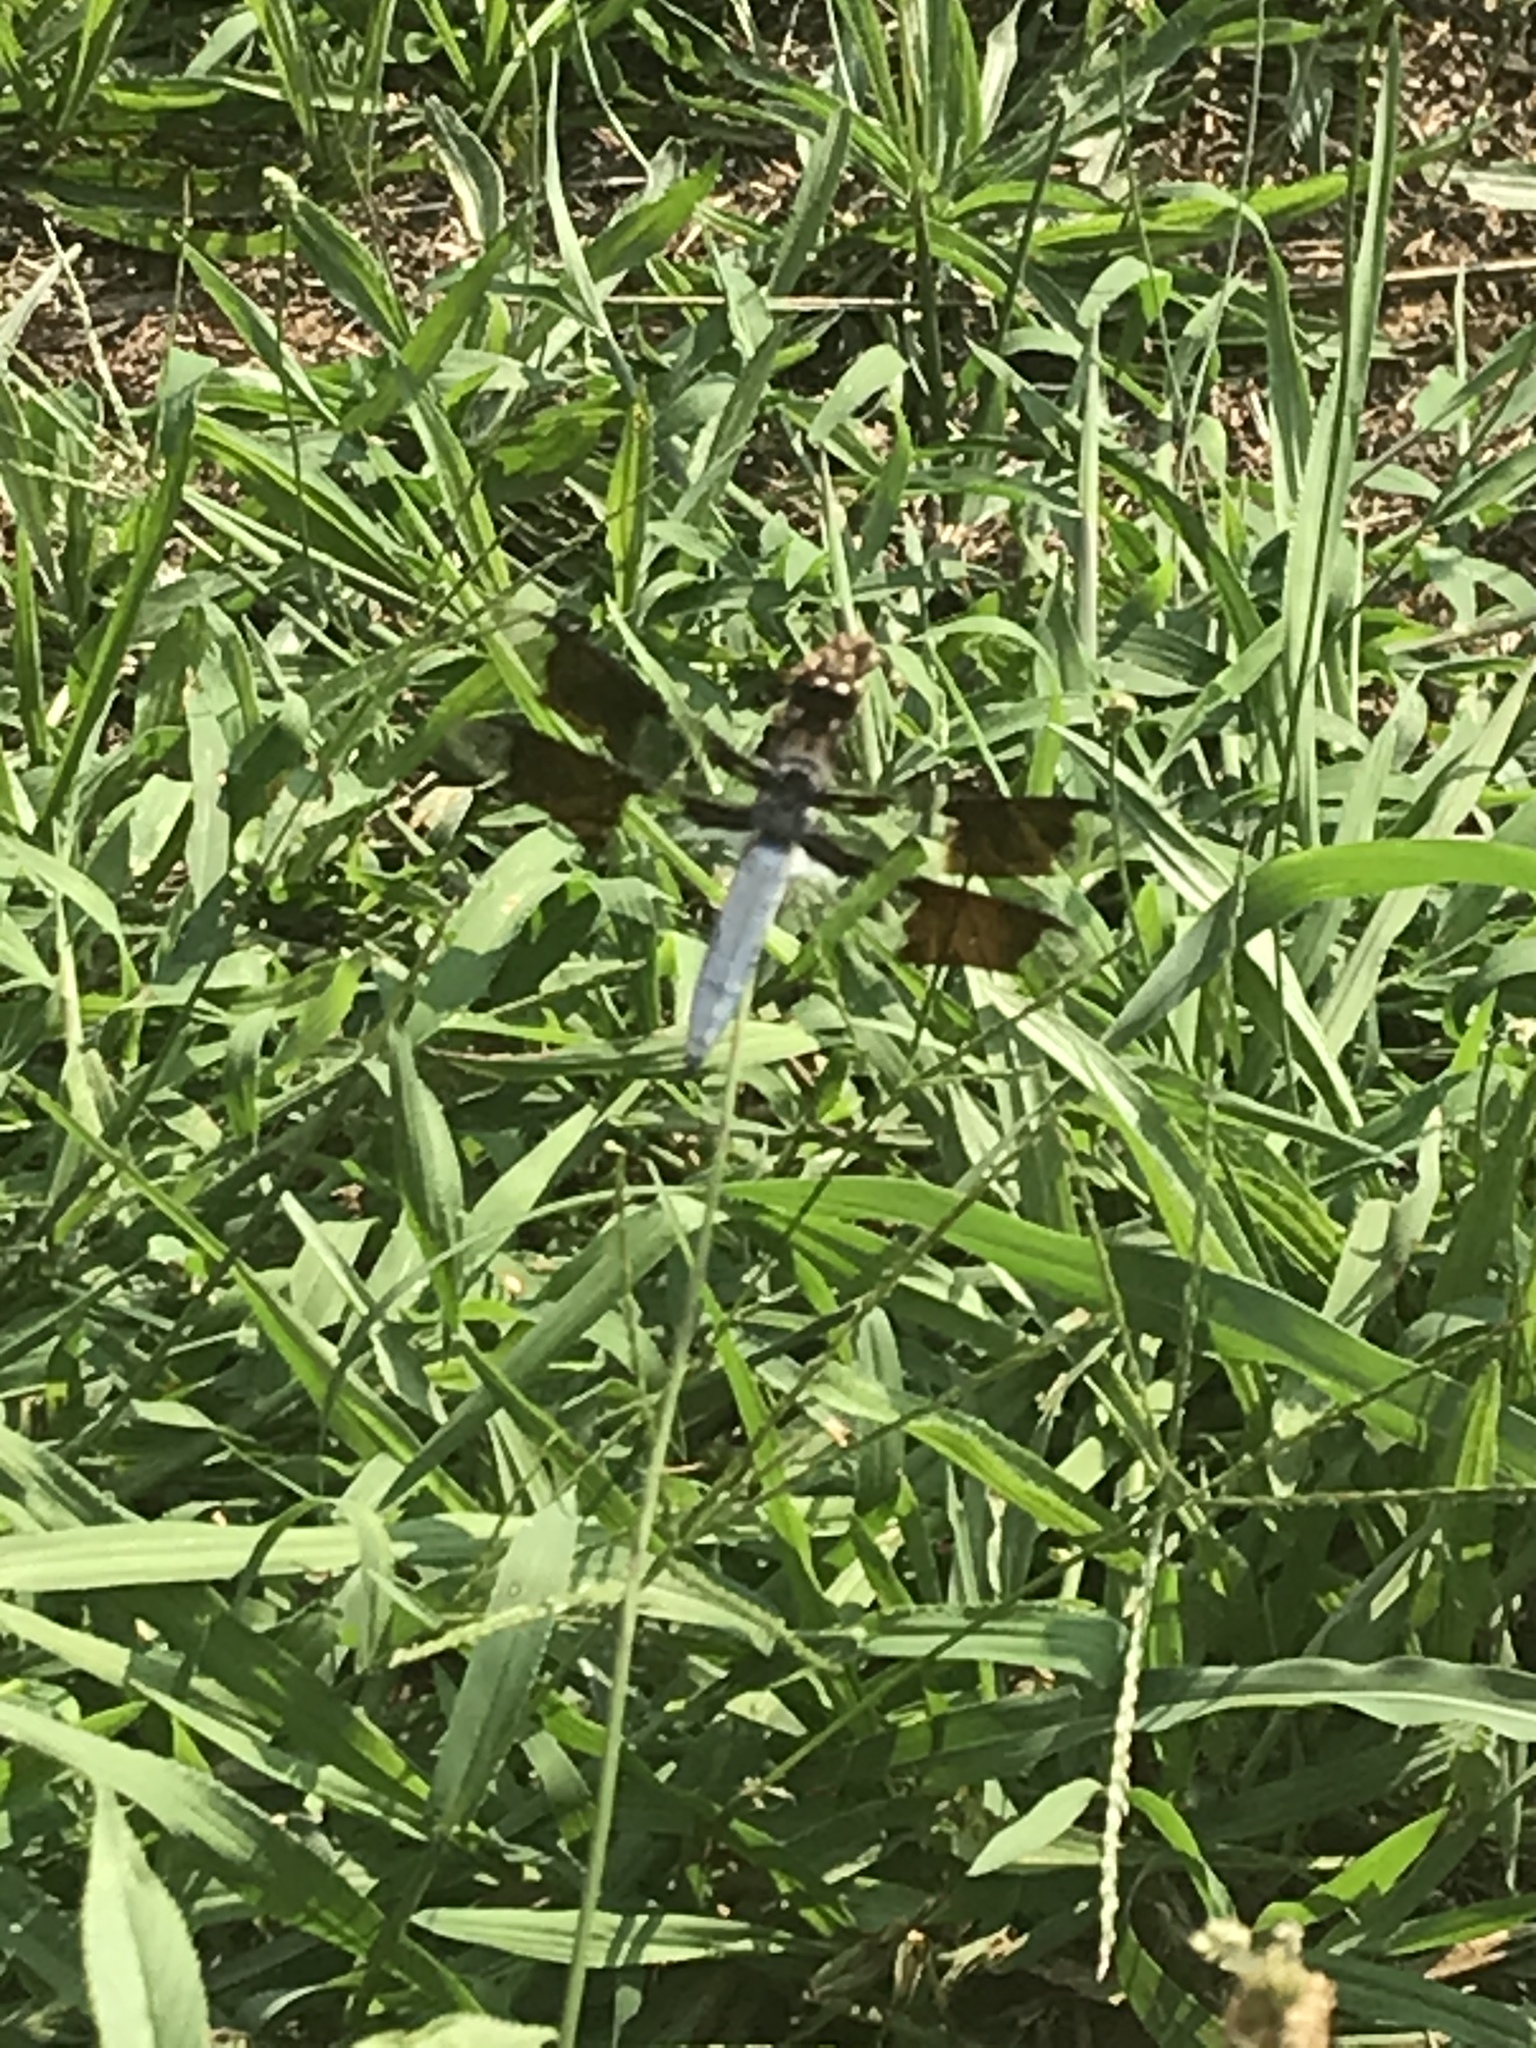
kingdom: Animalia
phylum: Arthropoda
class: Insecta
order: Odonata
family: Libellulidae
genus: Plathemis
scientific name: Plathemis lydia
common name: Common whitetail
